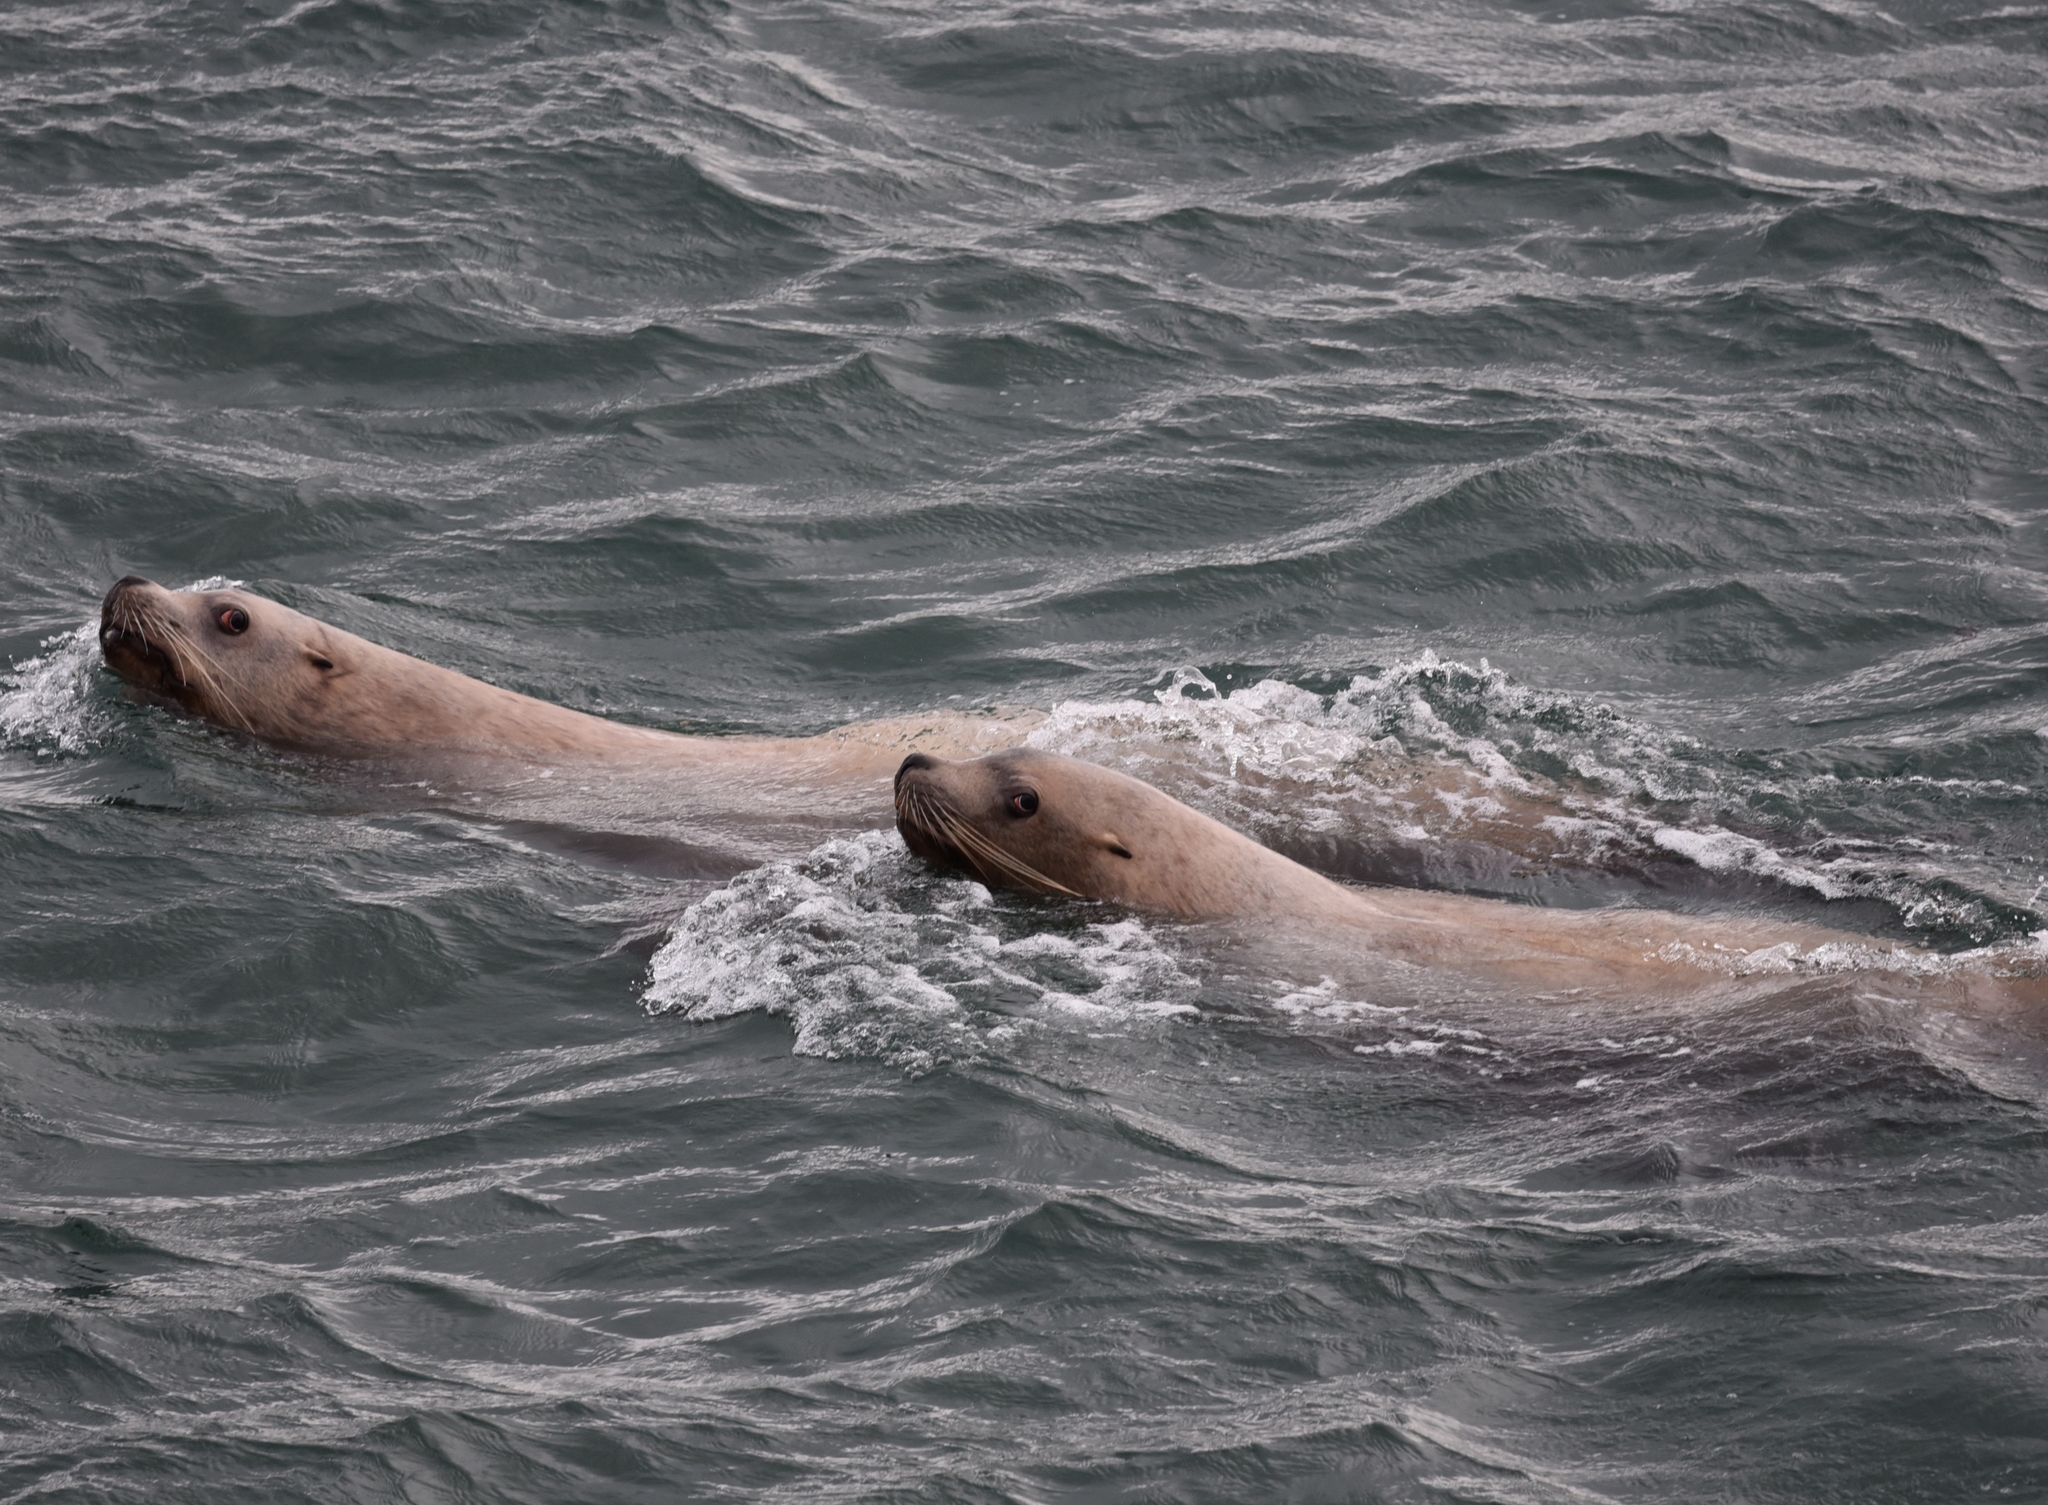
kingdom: Animalia
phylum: Chordata
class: Mammalia
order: Carnivora
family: Otariidae
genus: Eumetopias
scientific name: Eumetopias jubatus
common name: Steller sea lion
